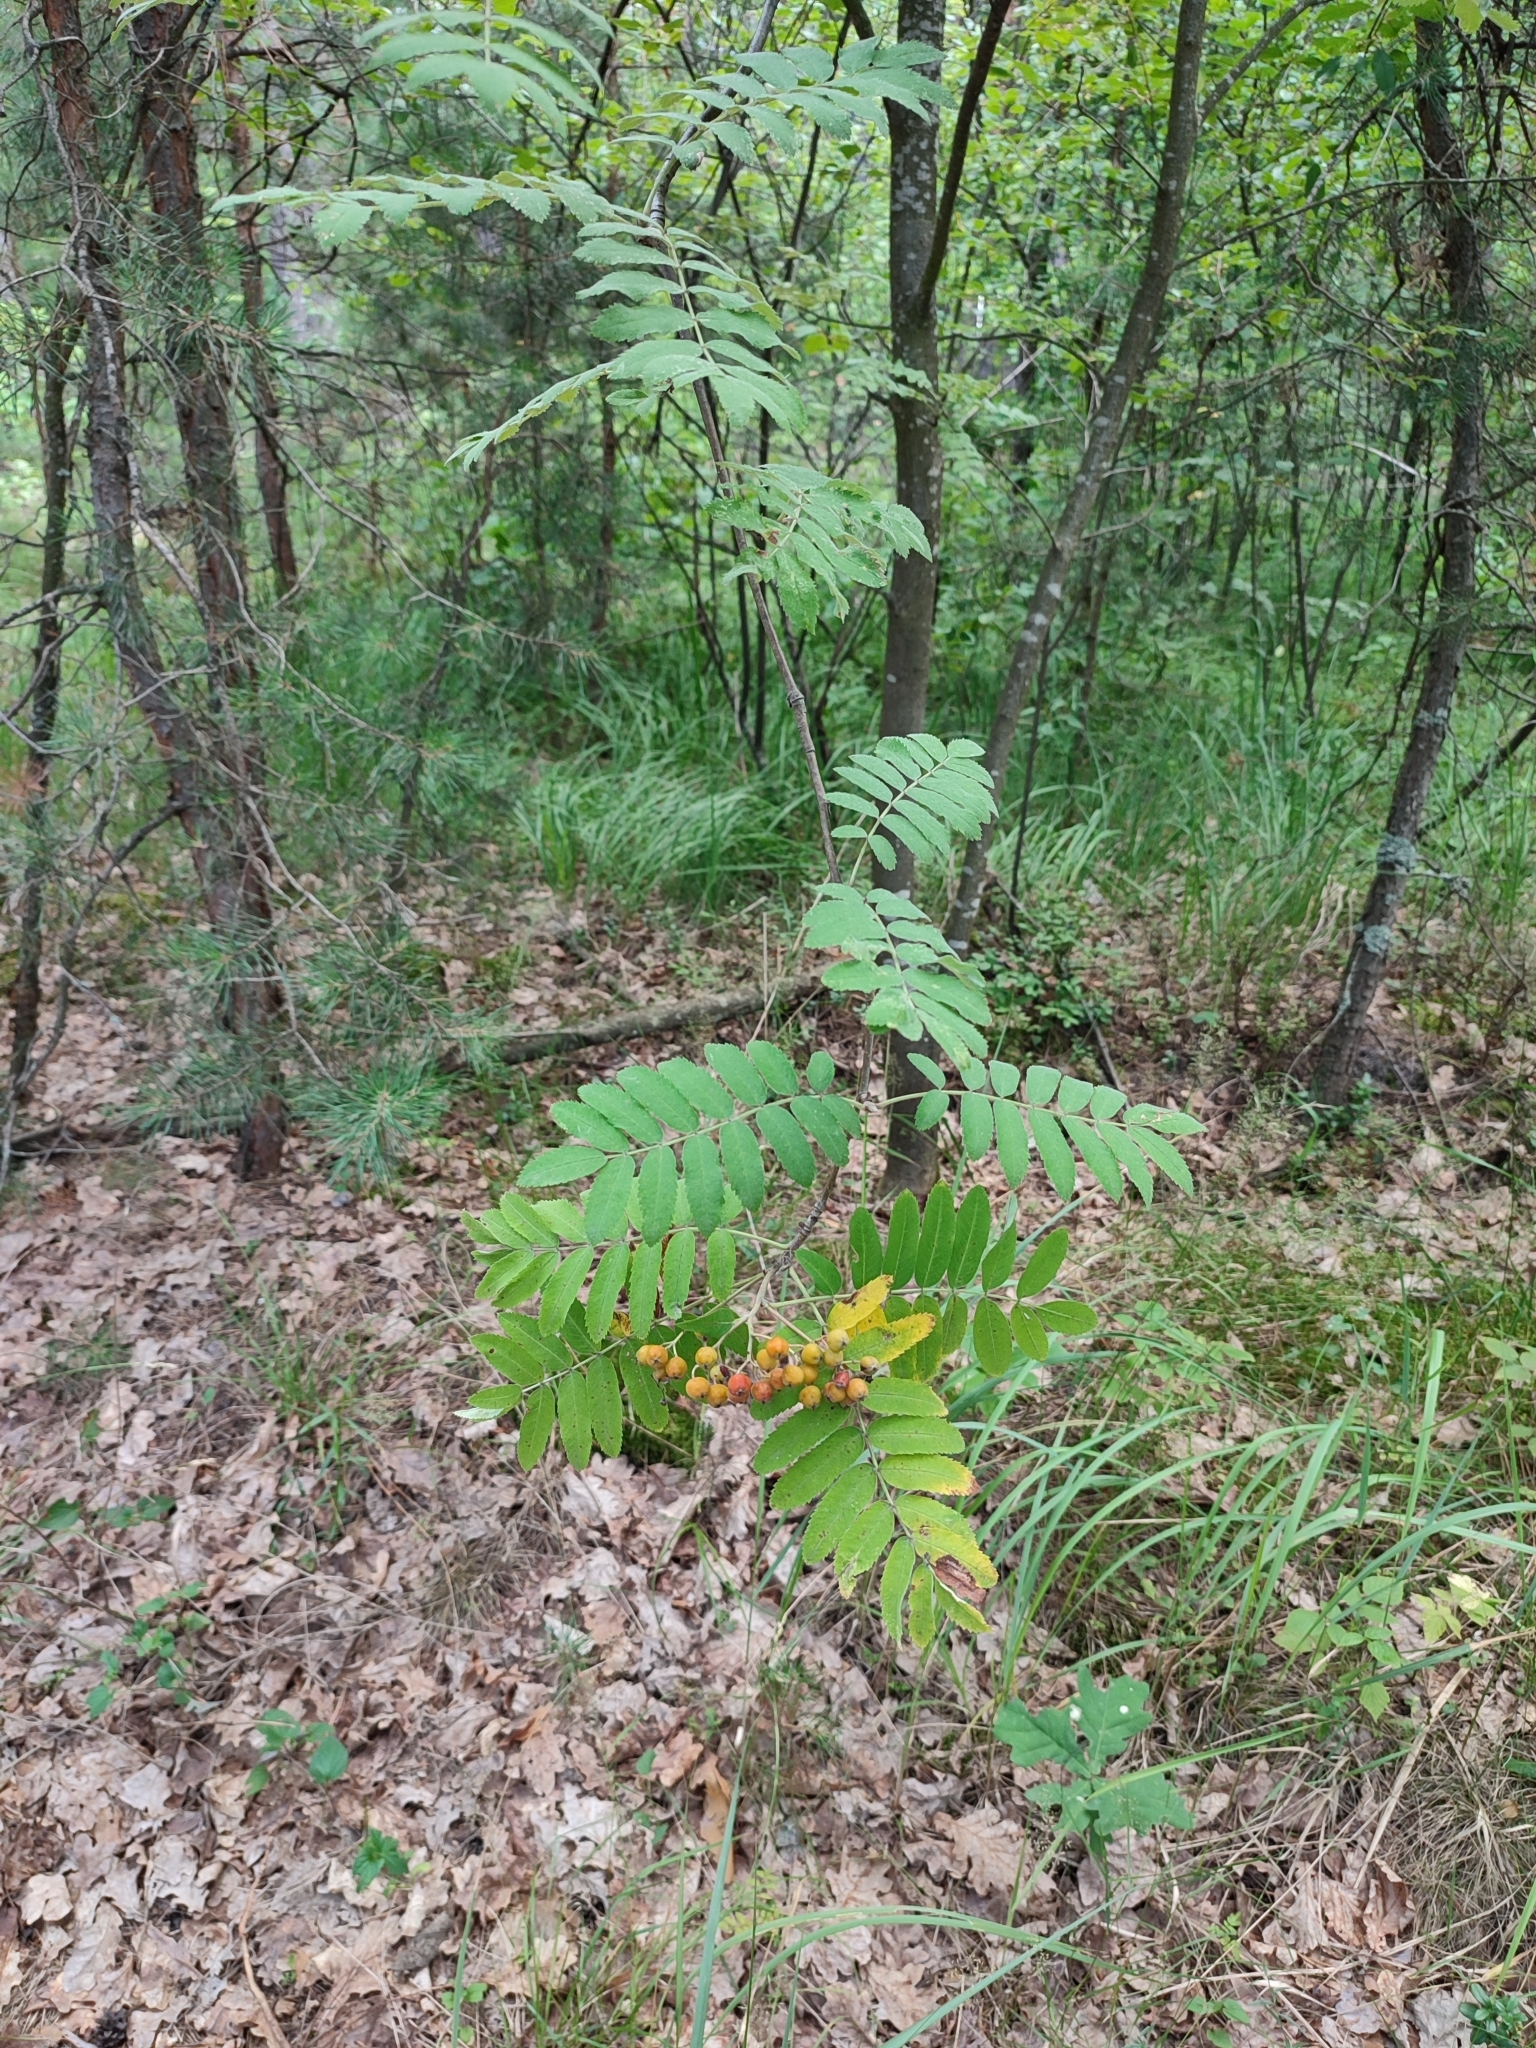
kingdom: Plantae
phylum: Tracheophyta
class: Magnoliopsida
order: Rosales
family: Rosaceae
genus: Sorbus
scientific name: Sorbus aucuparia
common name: Rowan
